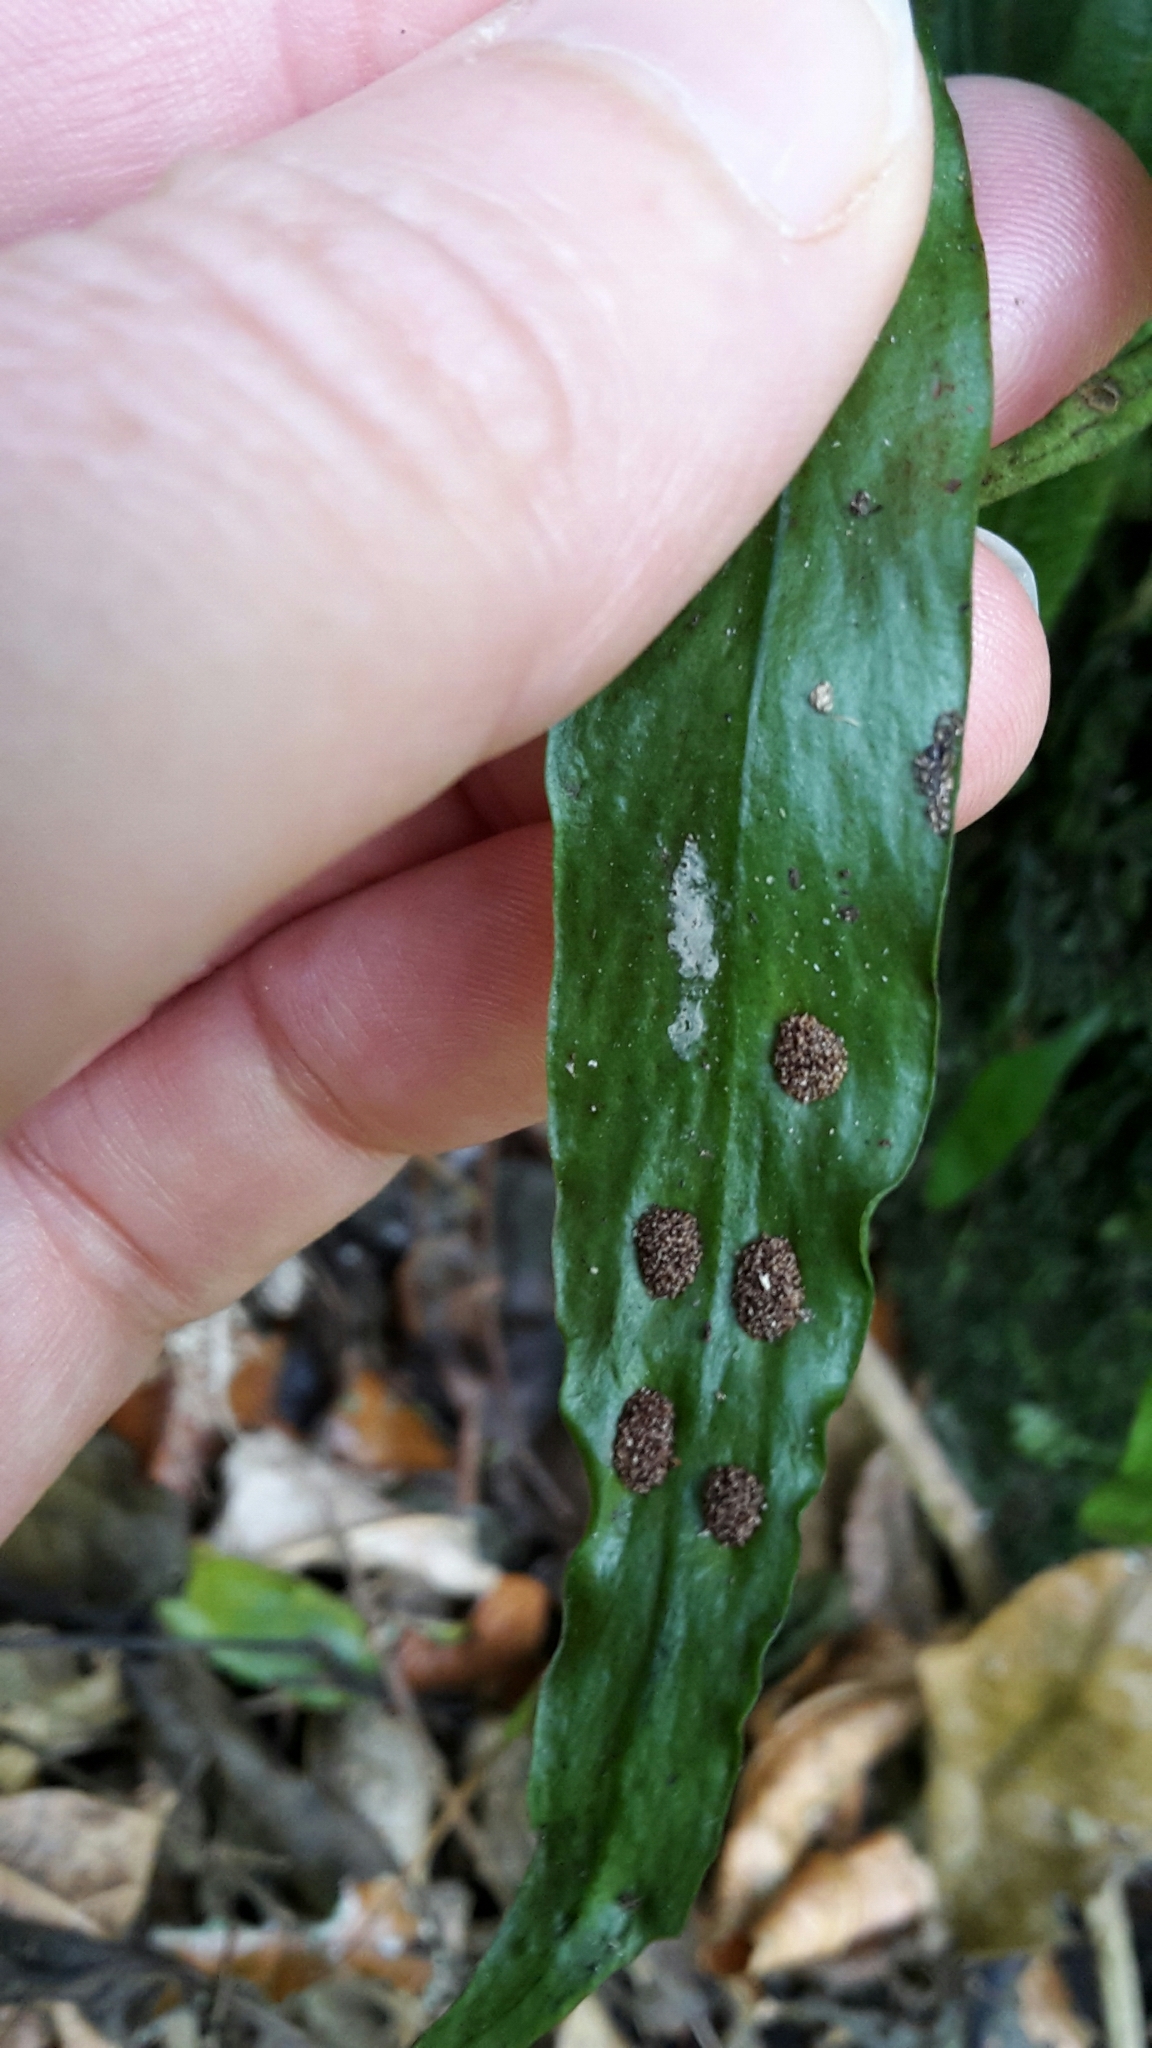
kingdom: Plantae
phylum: Tracheophyta
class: Polypodiopsida
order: Polypodiales
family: Polypodiaceae
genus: Loxogramme
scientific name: Loxogramme dictyopteris
